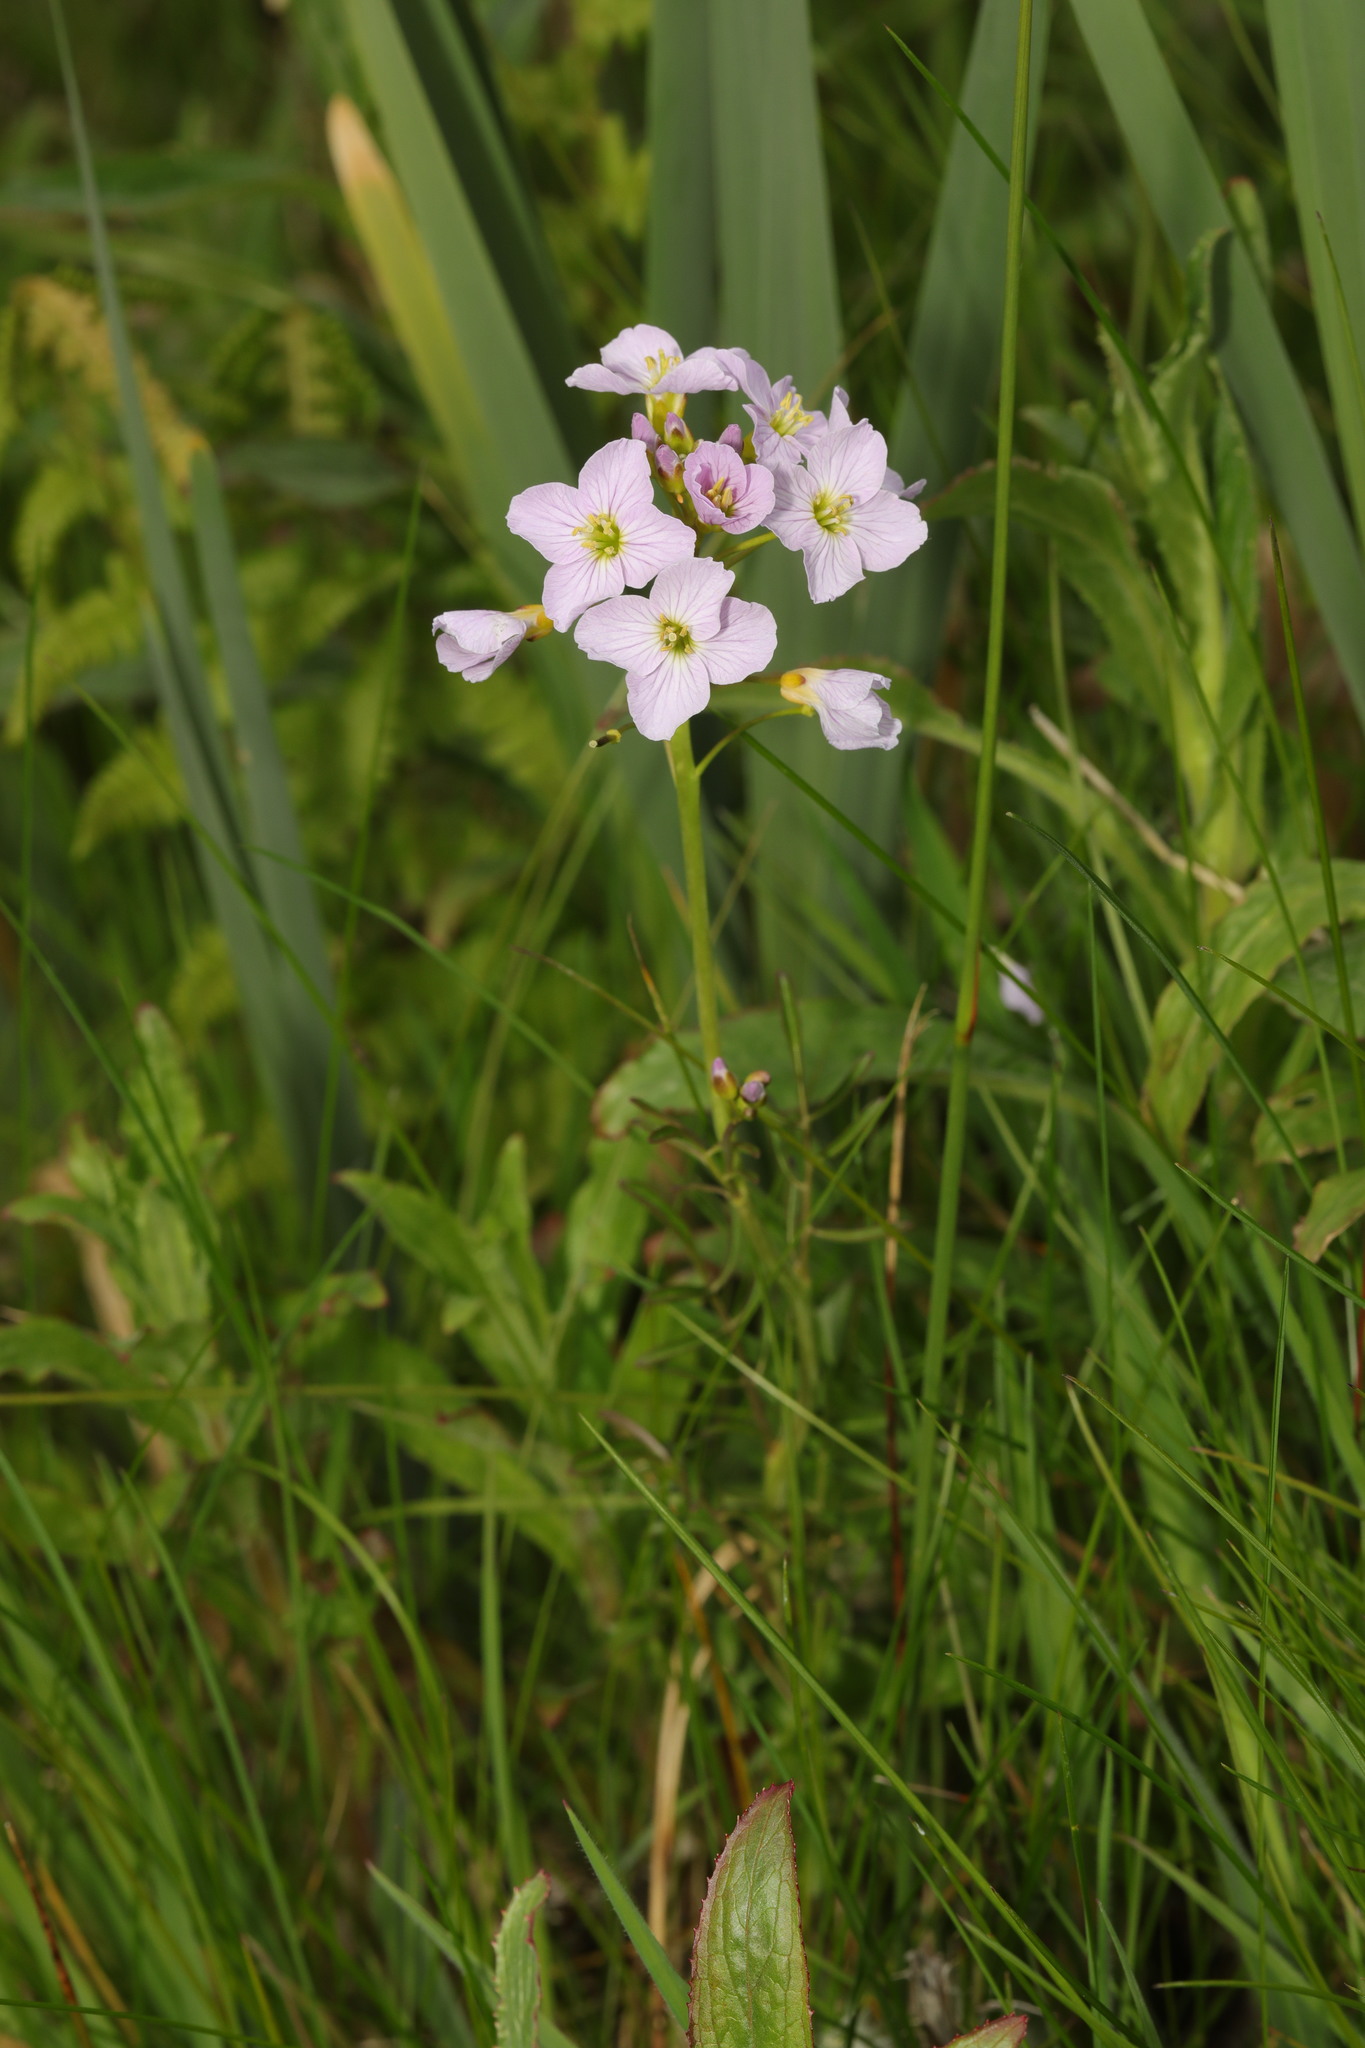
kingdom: Plantae
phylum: Tracheophyta
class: Magnoliopsida
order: Brassicales
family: Brassicaceae
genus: Cardamine
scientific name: Cardamine pratensis
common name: Cuckoo flower
